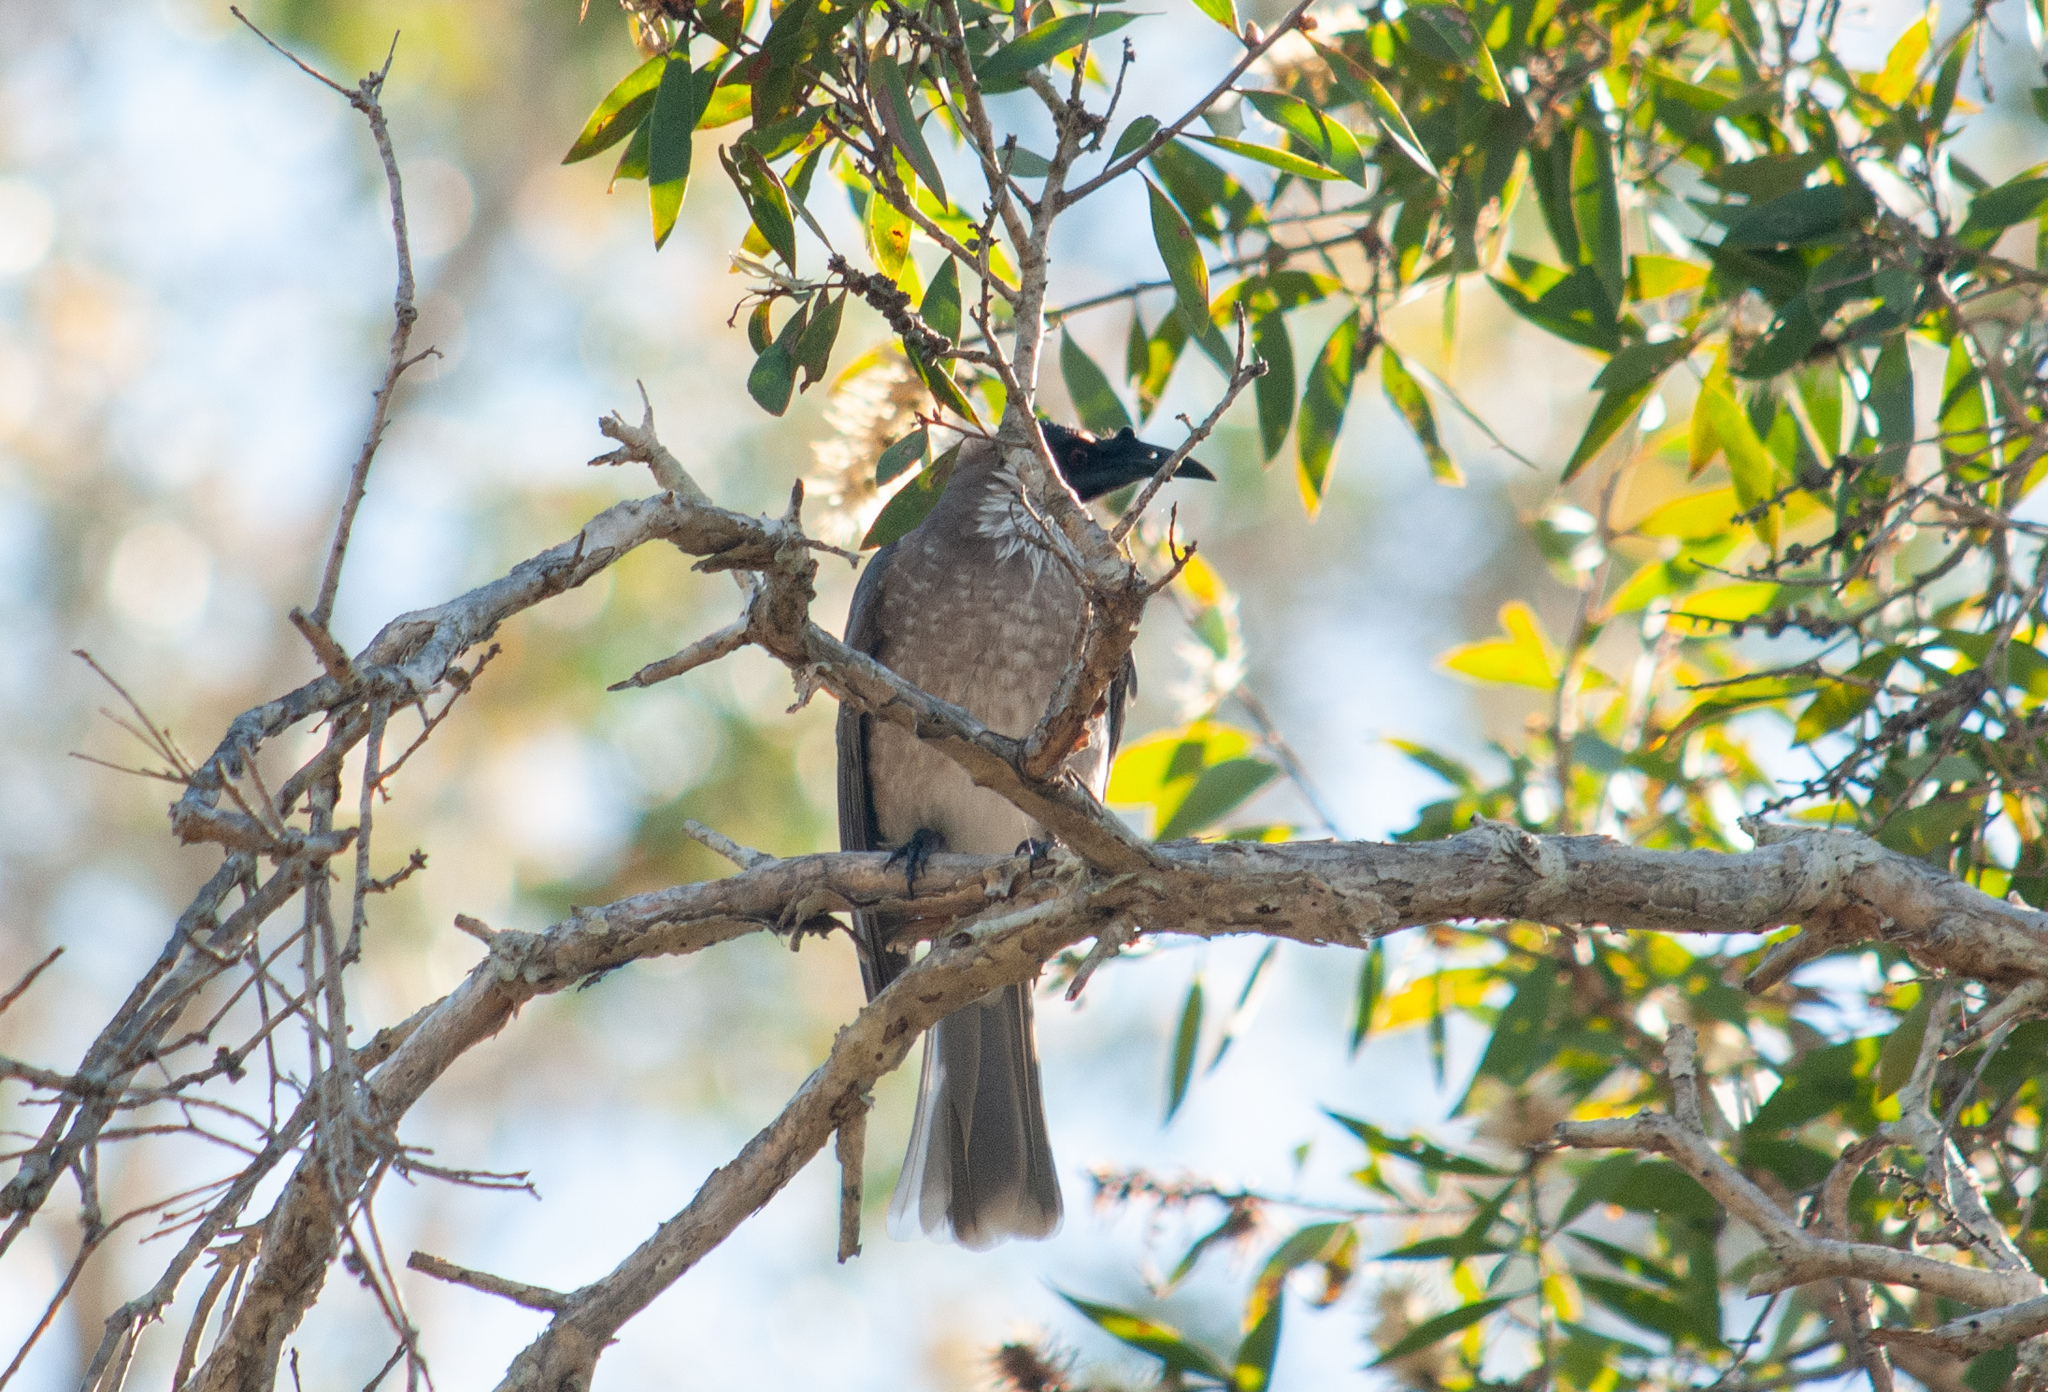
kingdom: Animalia
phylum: Chordata
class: Aves
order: Passeriformes
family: Meliphagidae
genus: Philemon
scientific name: Philemon corniculatus
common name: Noisy friarbird
